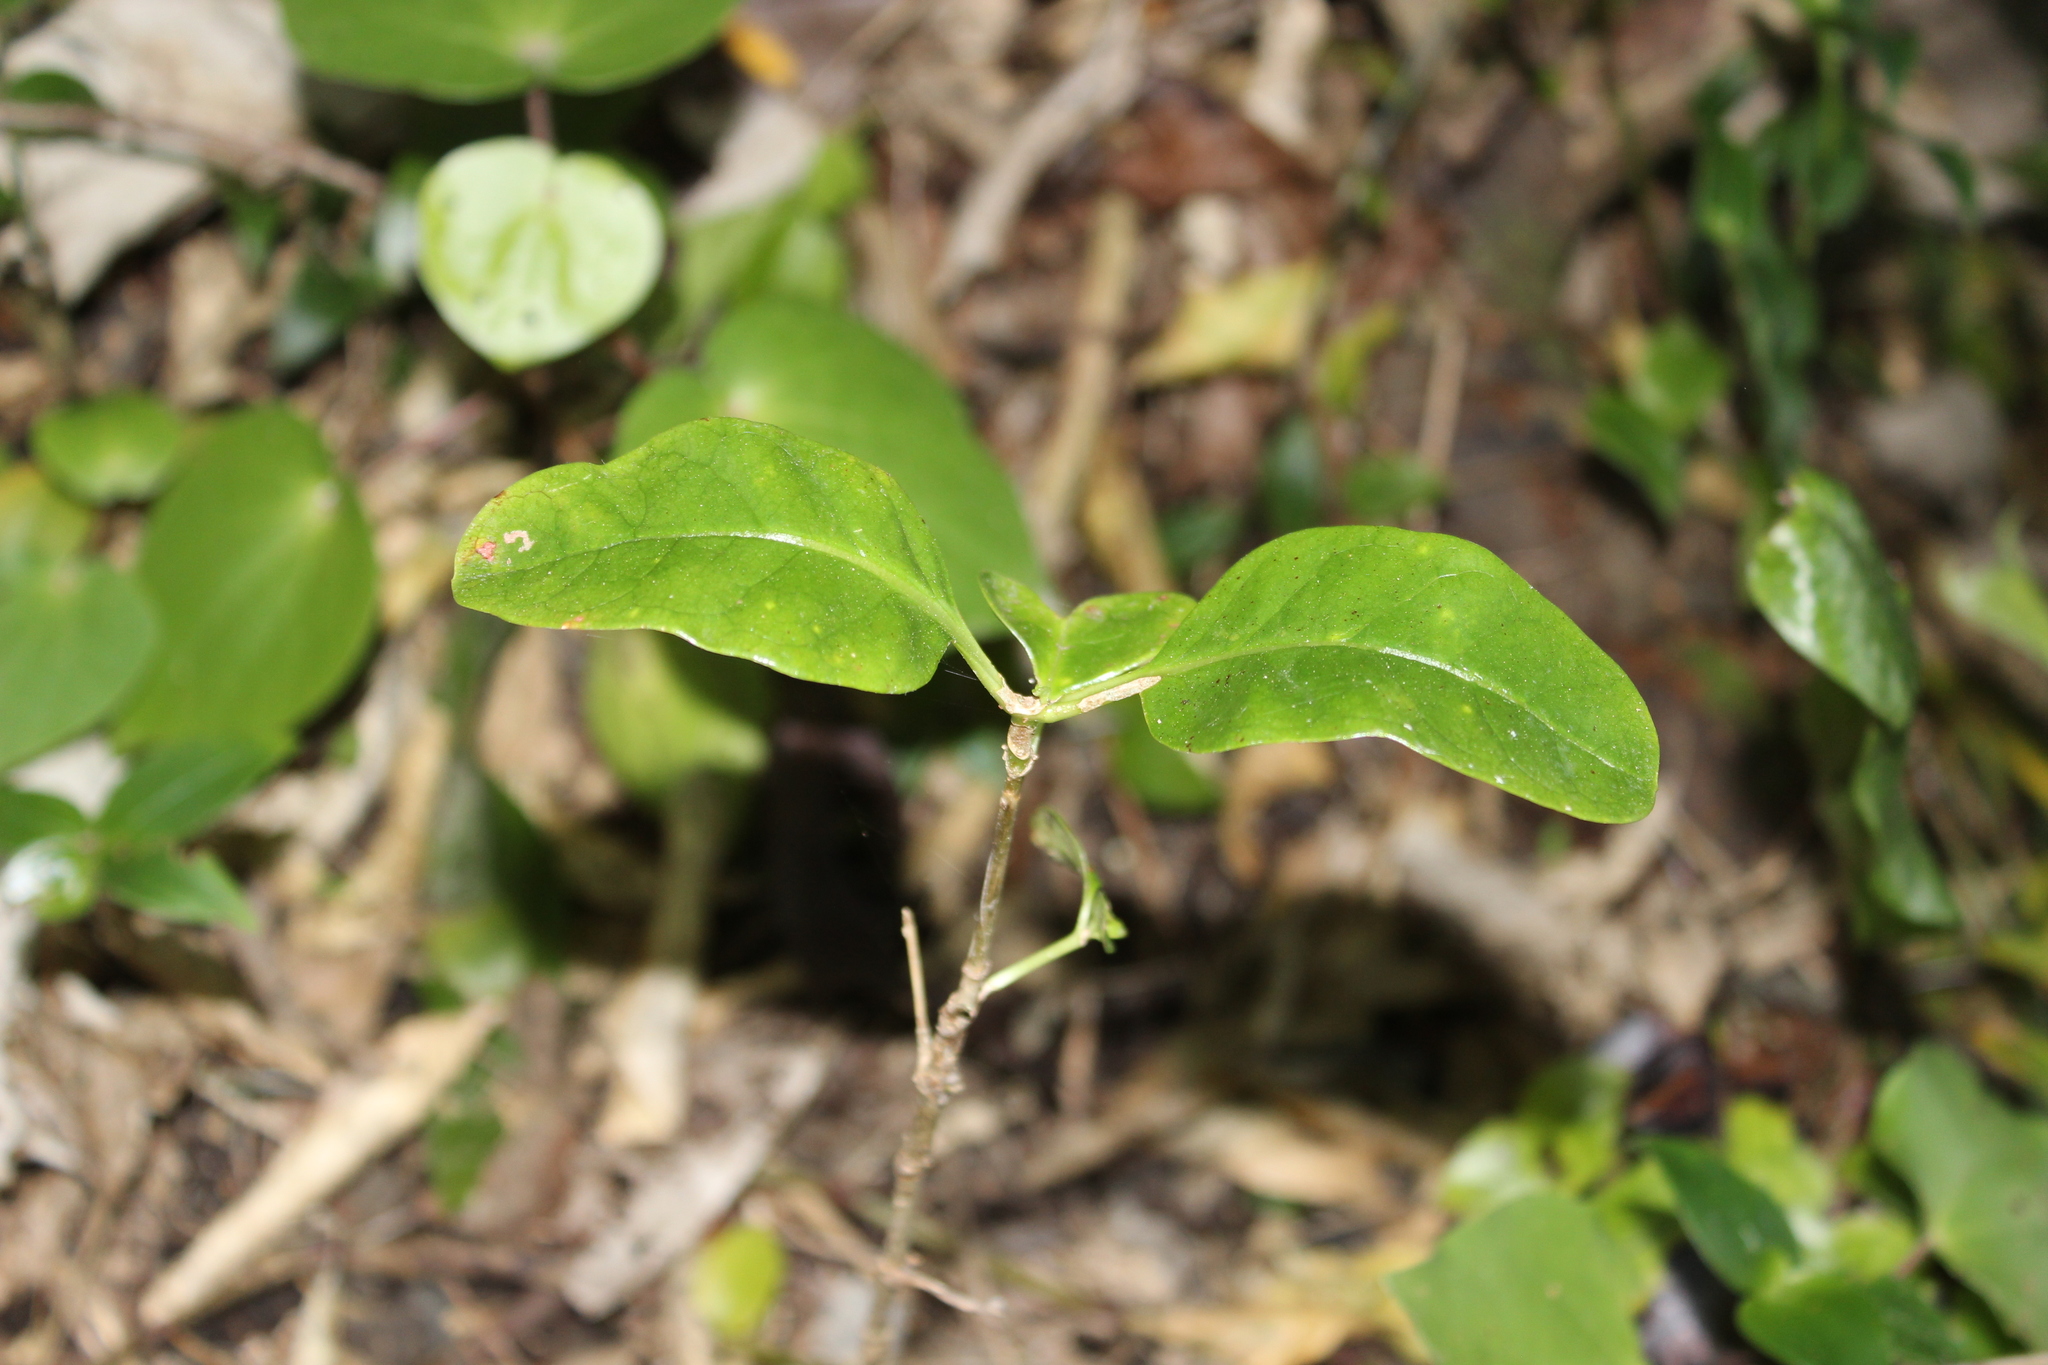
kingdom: Plantae
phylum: Tracheophyta
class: Magnoliopsida
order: Gentianales
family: Rubiaceae
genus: Coprosma
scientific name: Coprosma repens
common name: Tree bedstraw
